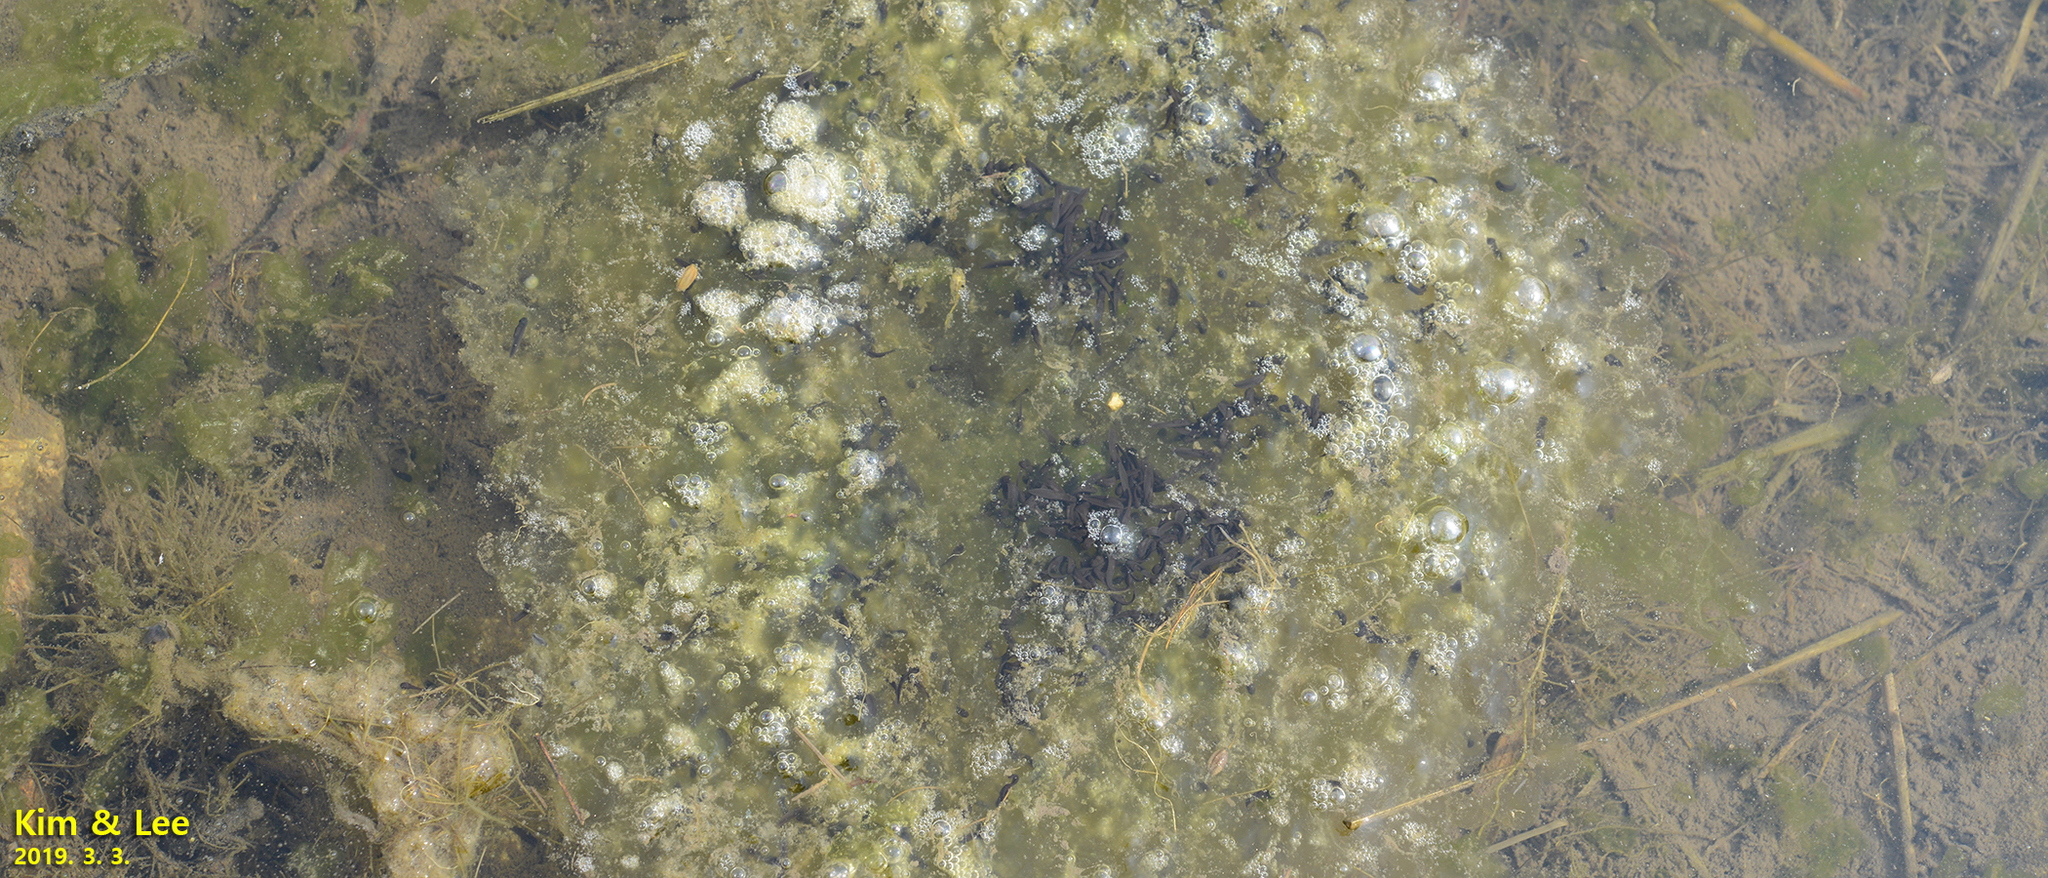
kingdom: Animalia
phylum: Chordata
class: Amphibia
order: Anura
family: Ranidae
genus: Rana
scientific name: Rana uenoi
